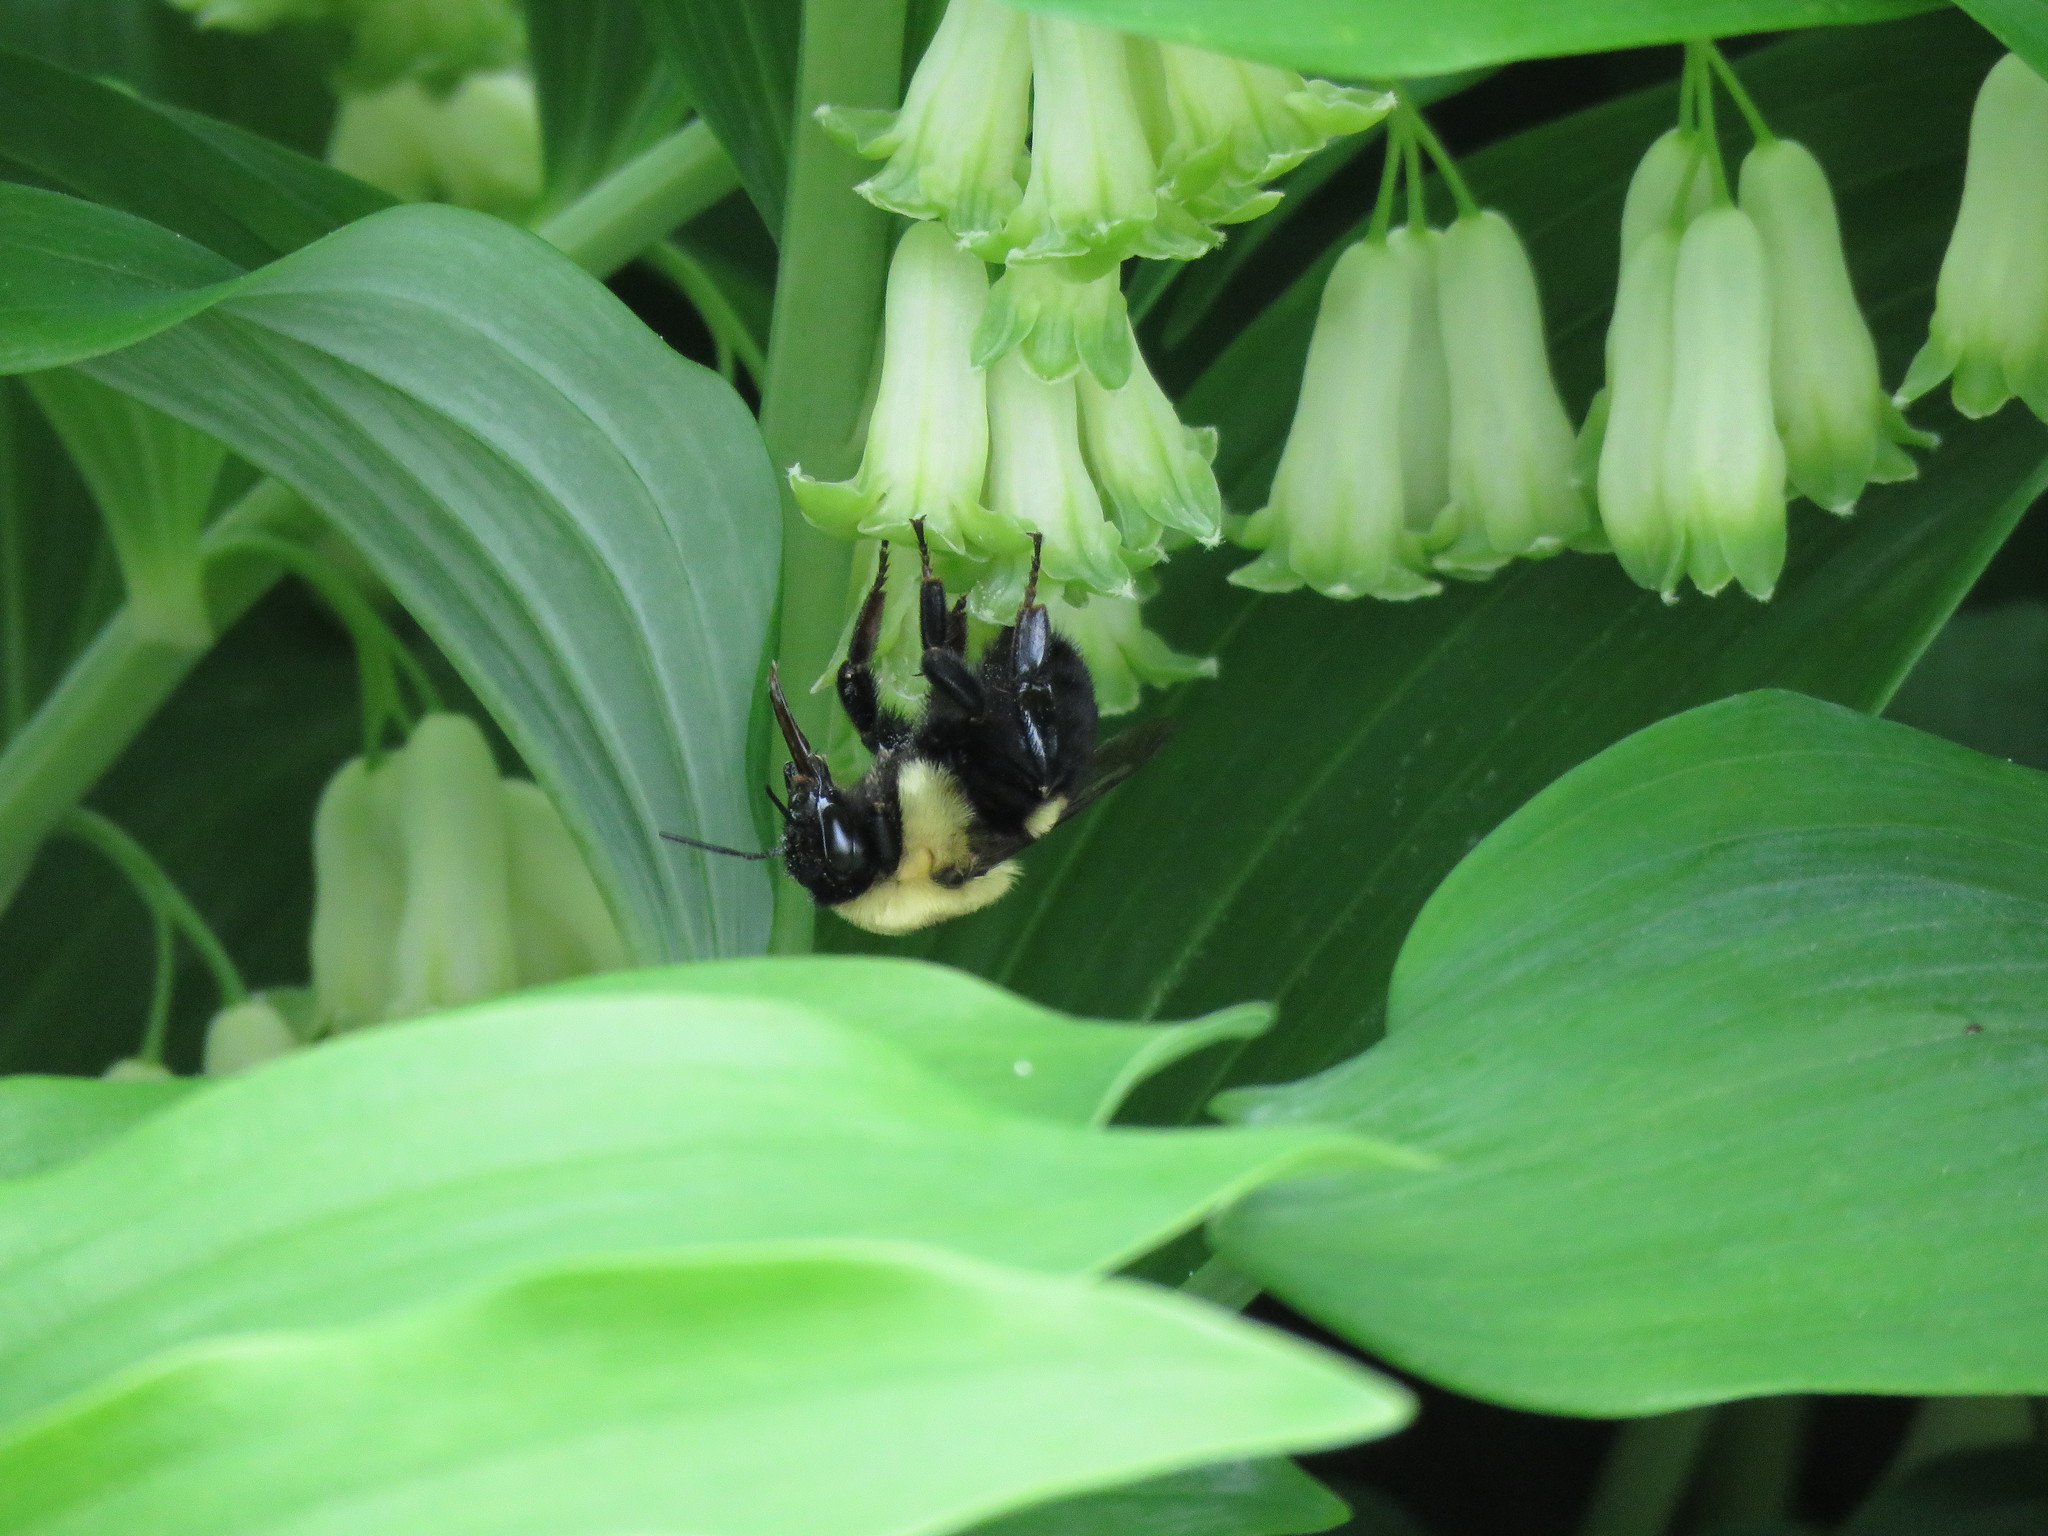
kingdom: Animalia
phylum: Arthropoda
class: Insecta
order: Hymenoptera
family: Apidae
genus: Bombus
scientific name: Bombus griseocollis
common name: Brown-belted bumble bee
